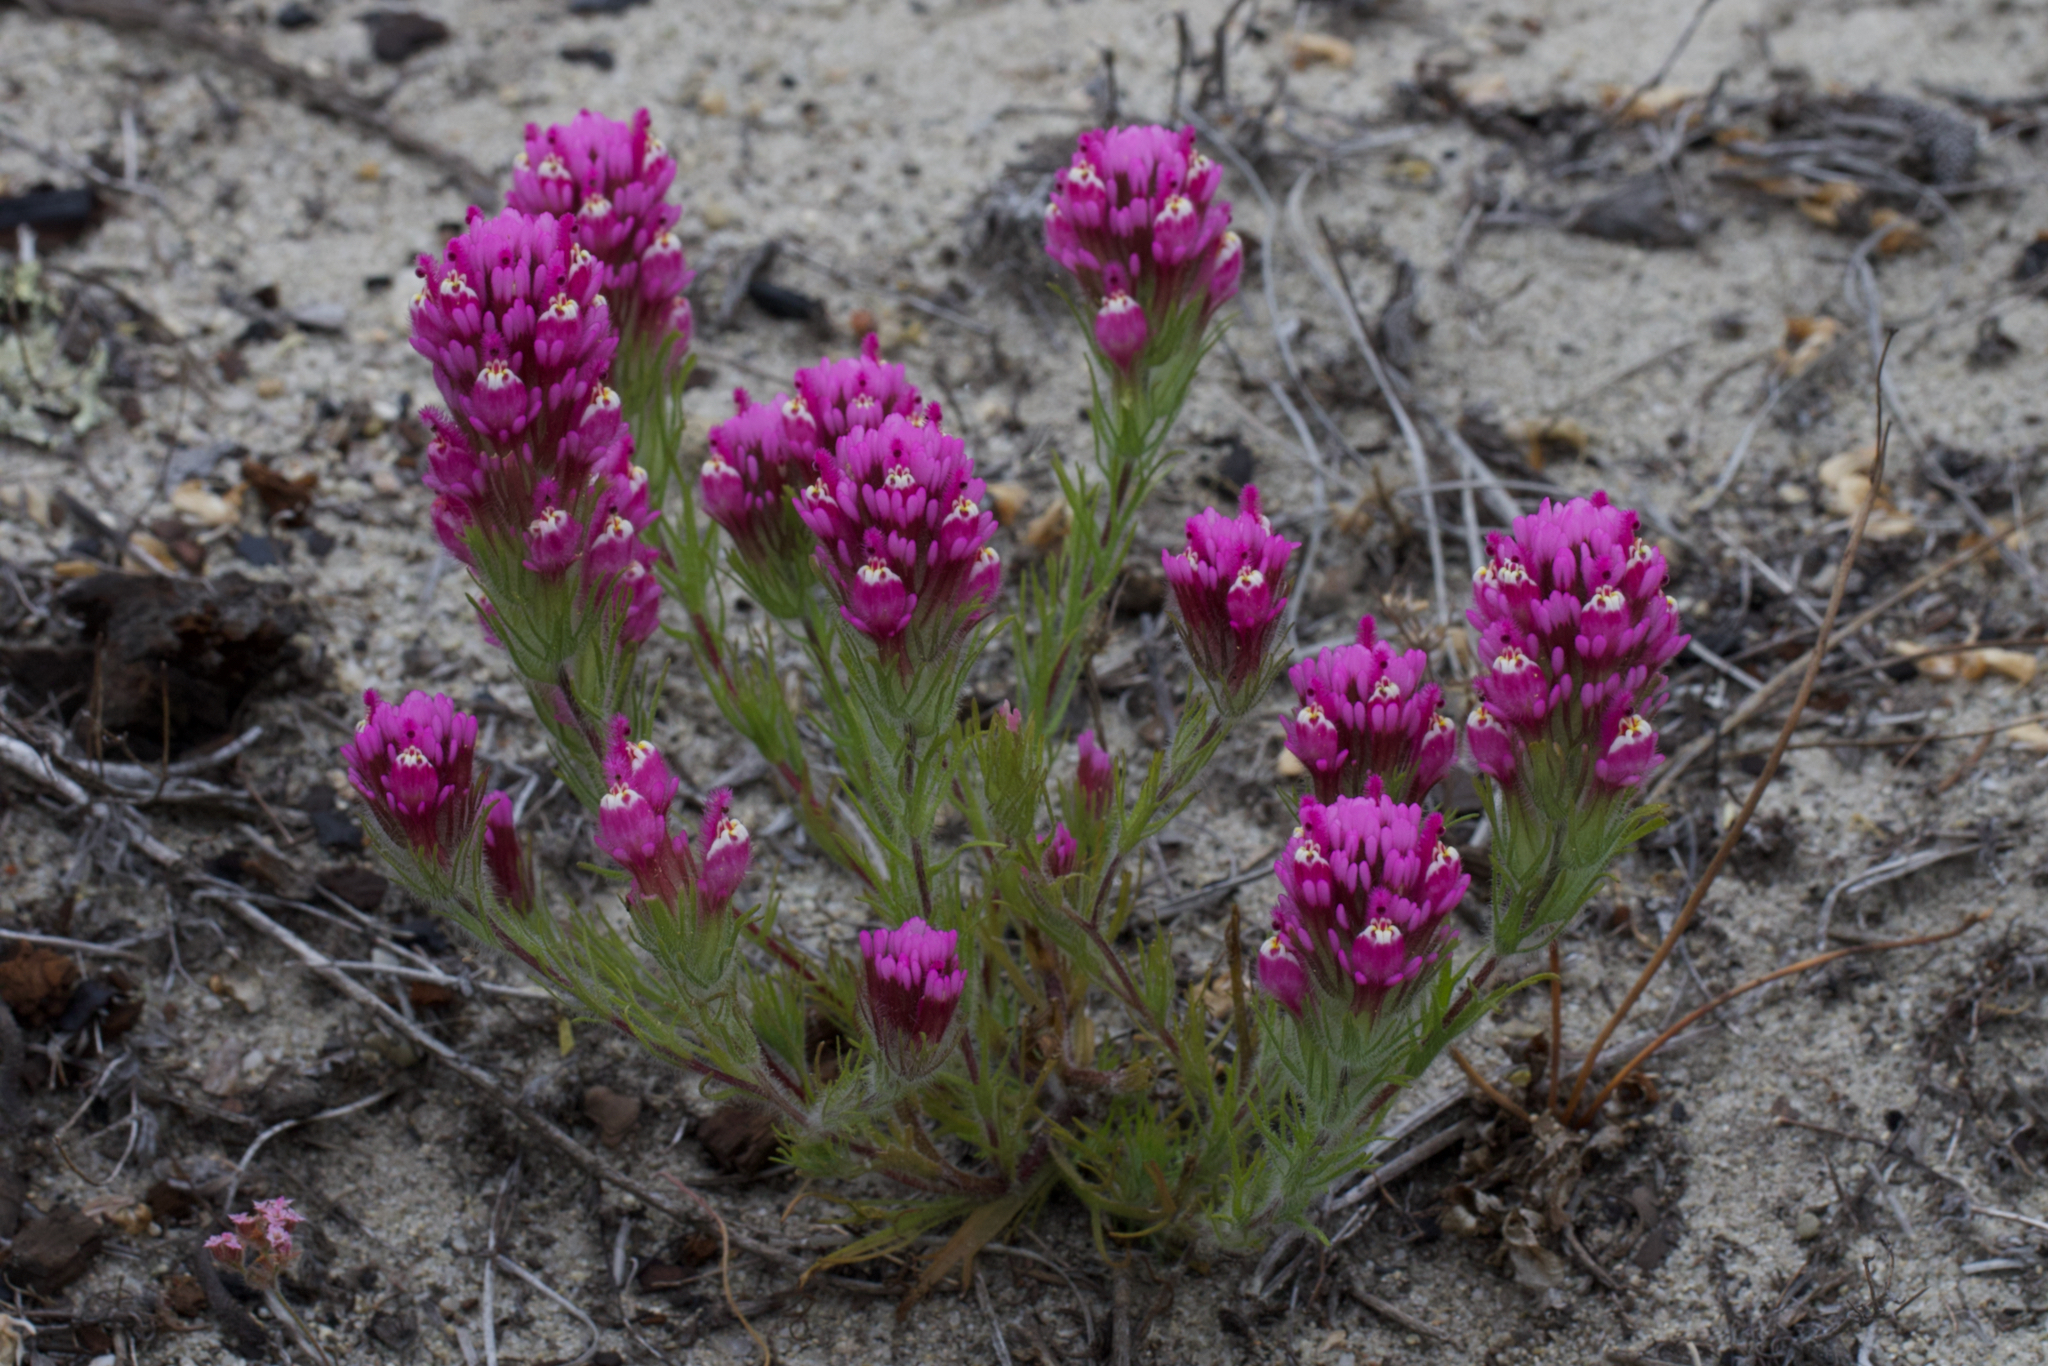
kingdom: Plantae
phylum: Tracheophyta
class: Magnoliopsida
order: Lamiales
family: Orobanchaceae
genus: Castilleja
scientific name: Castilleja exserta
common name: Purple owl-clover
